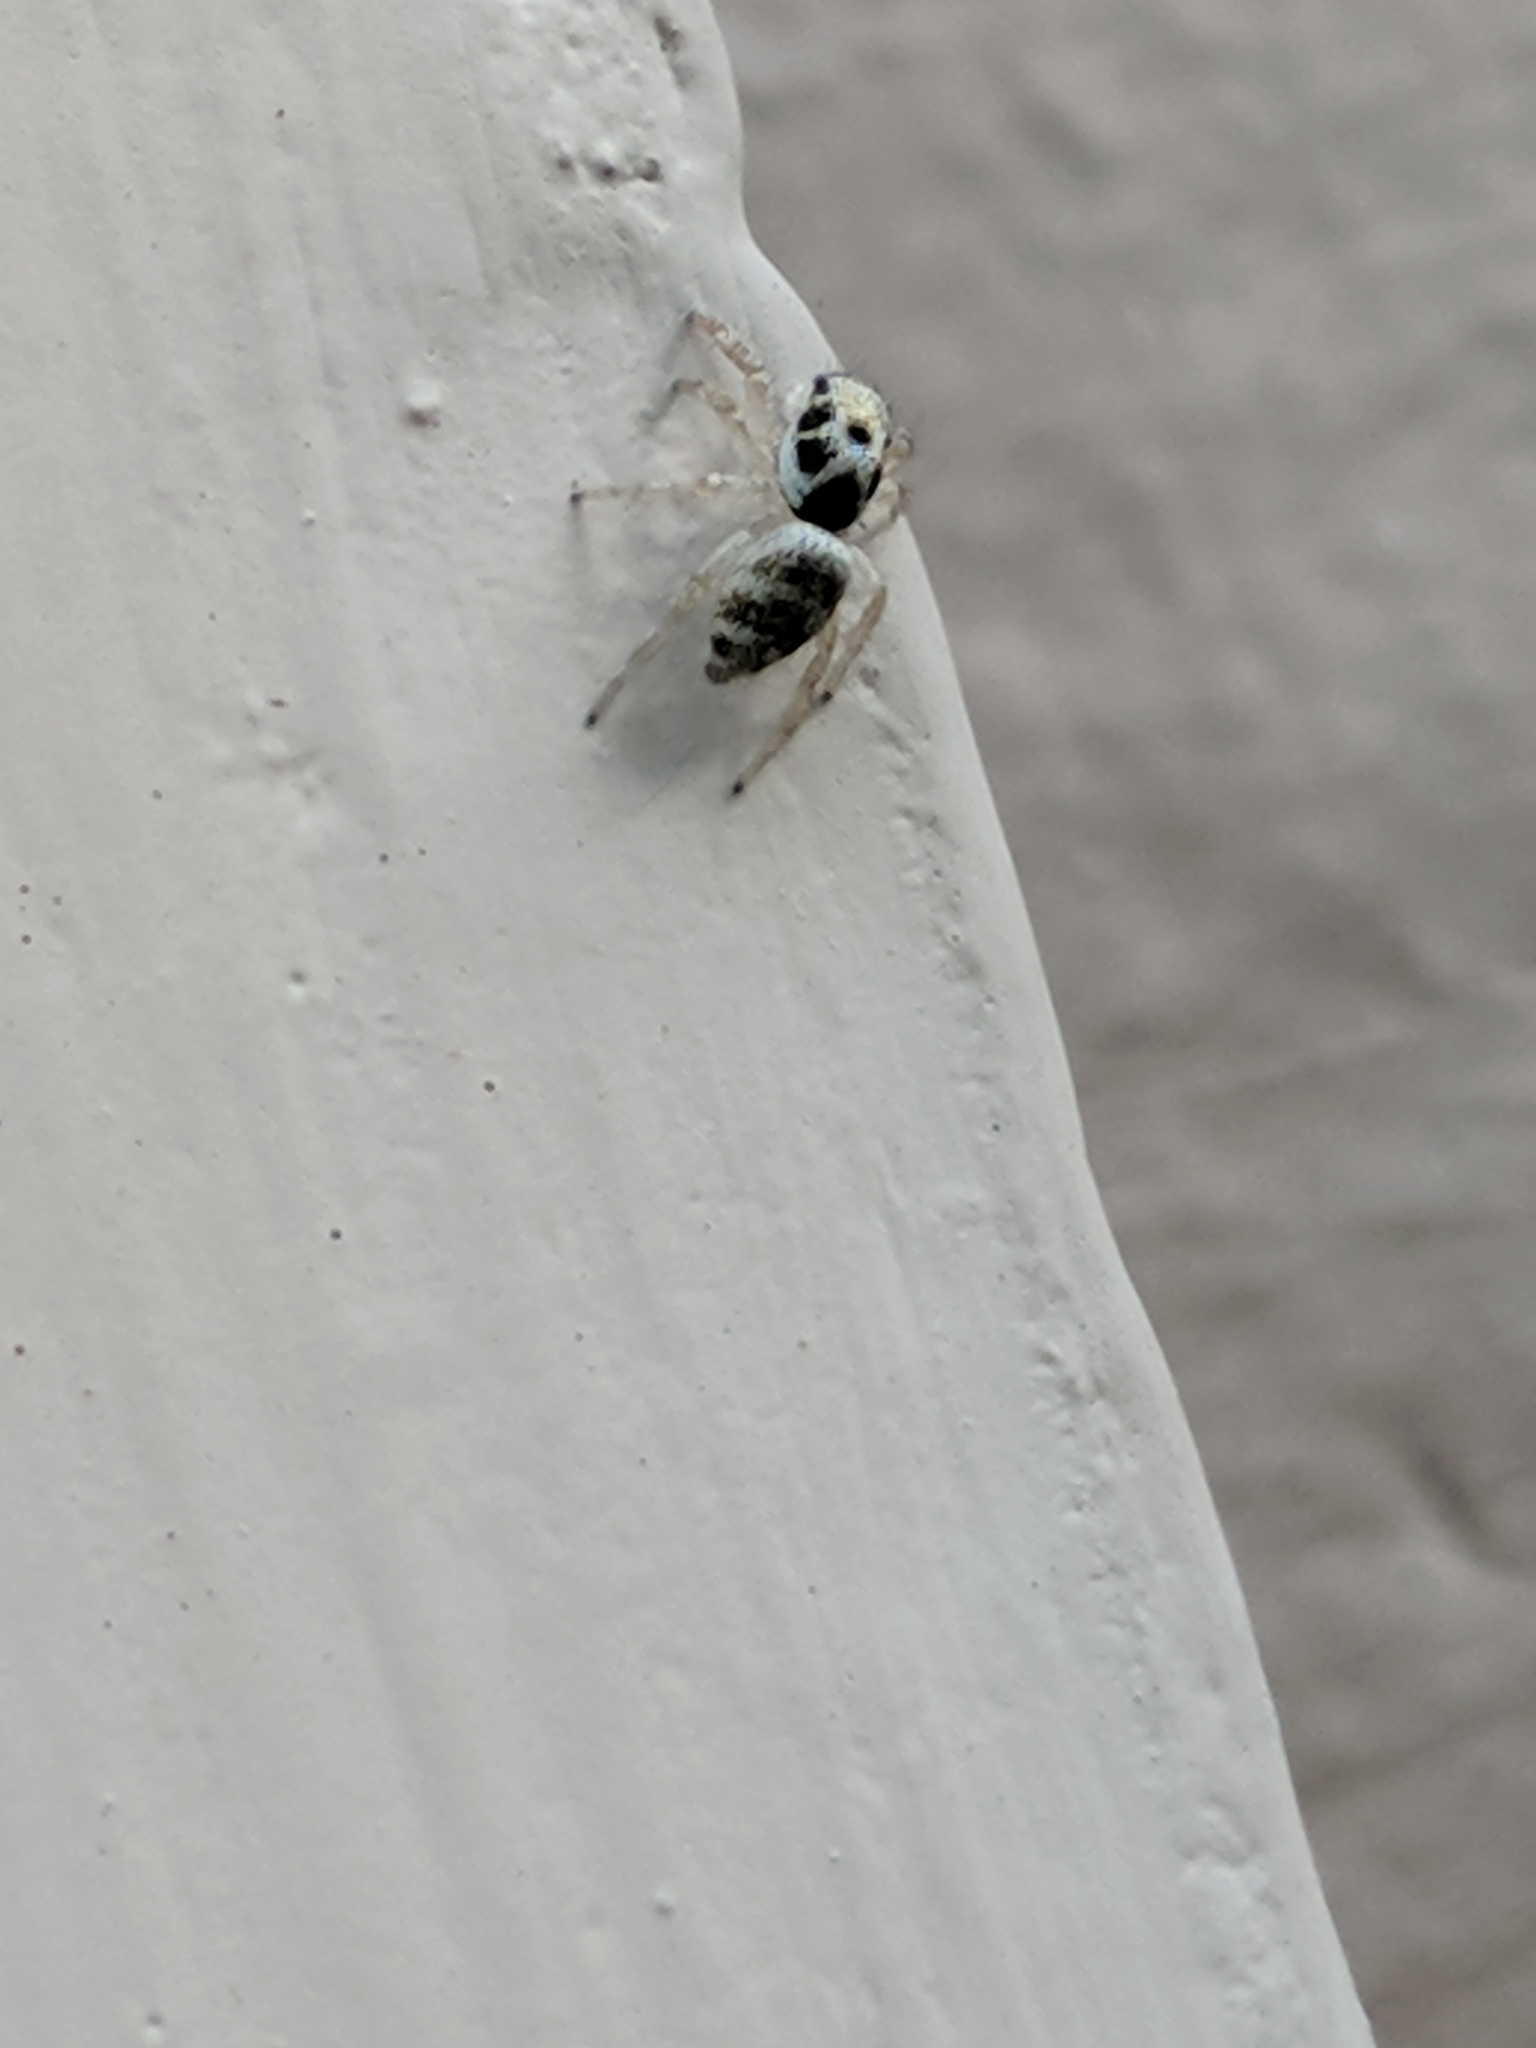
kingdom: Animalia
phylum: Arthropoda
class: Arachnida
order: Araneae
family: Salticidae
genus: Salticus
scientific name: Salticus scenicus
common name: Zebra jumper
